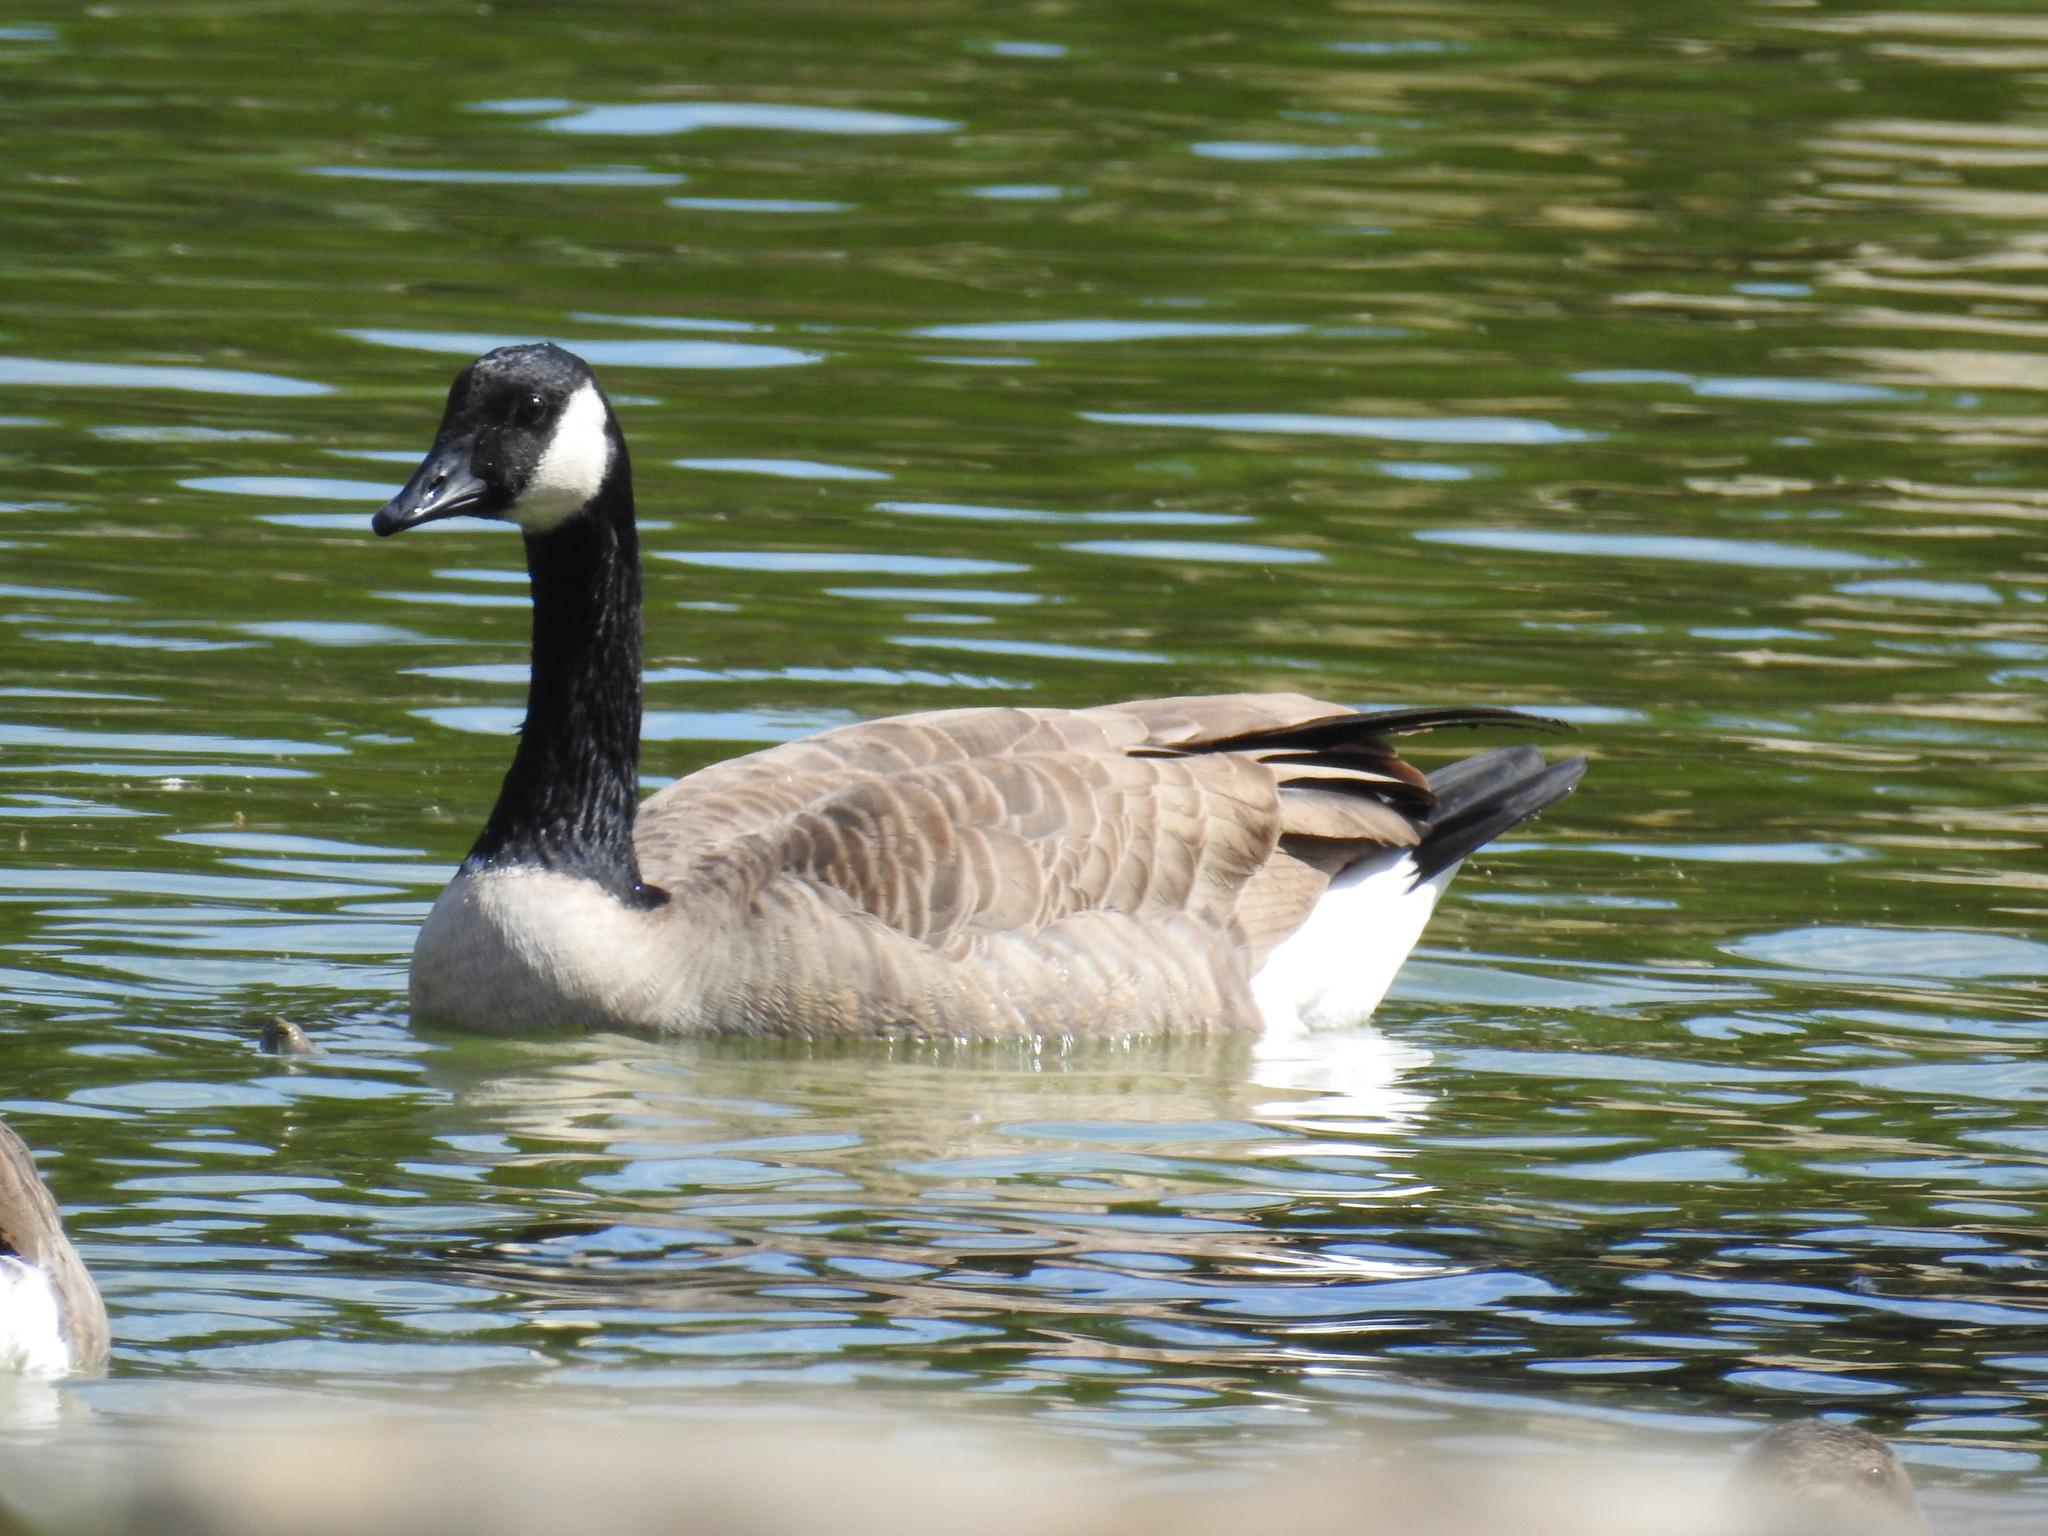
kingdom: Animalia
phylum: Chordata
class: Aves
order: Anseriformes
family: Anatidae
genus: Branta
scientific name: Branta canadensis
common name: Canada goose
